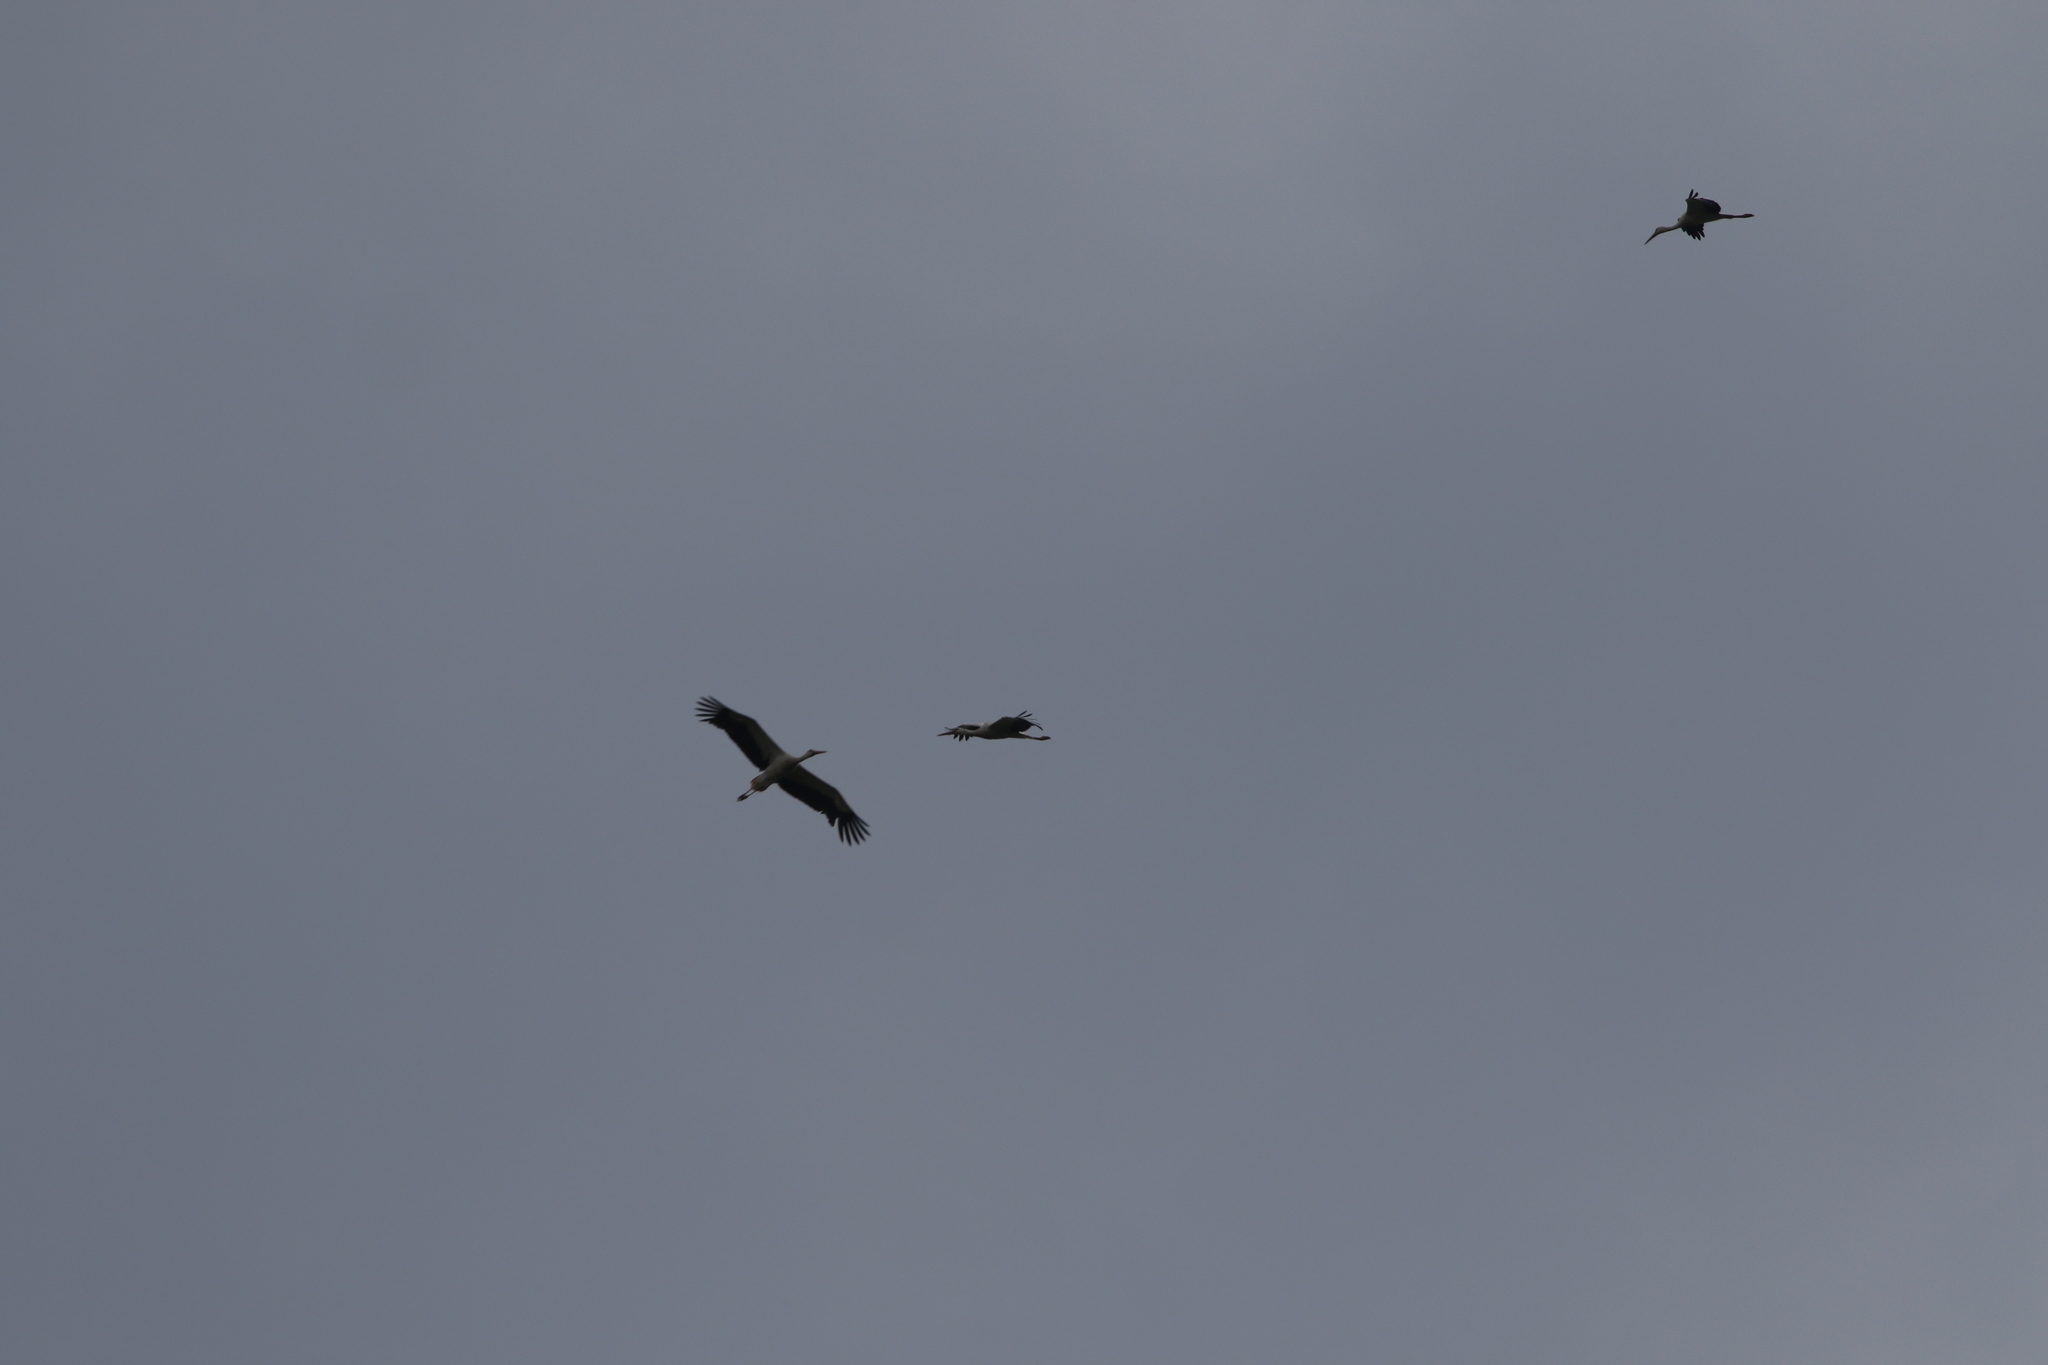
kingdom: Animalia
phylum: Chordata
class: Aves
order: Ciconiiformes
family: Ciconiidae
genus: Ciconia
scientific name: Ciconia ciconia
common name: White stork
